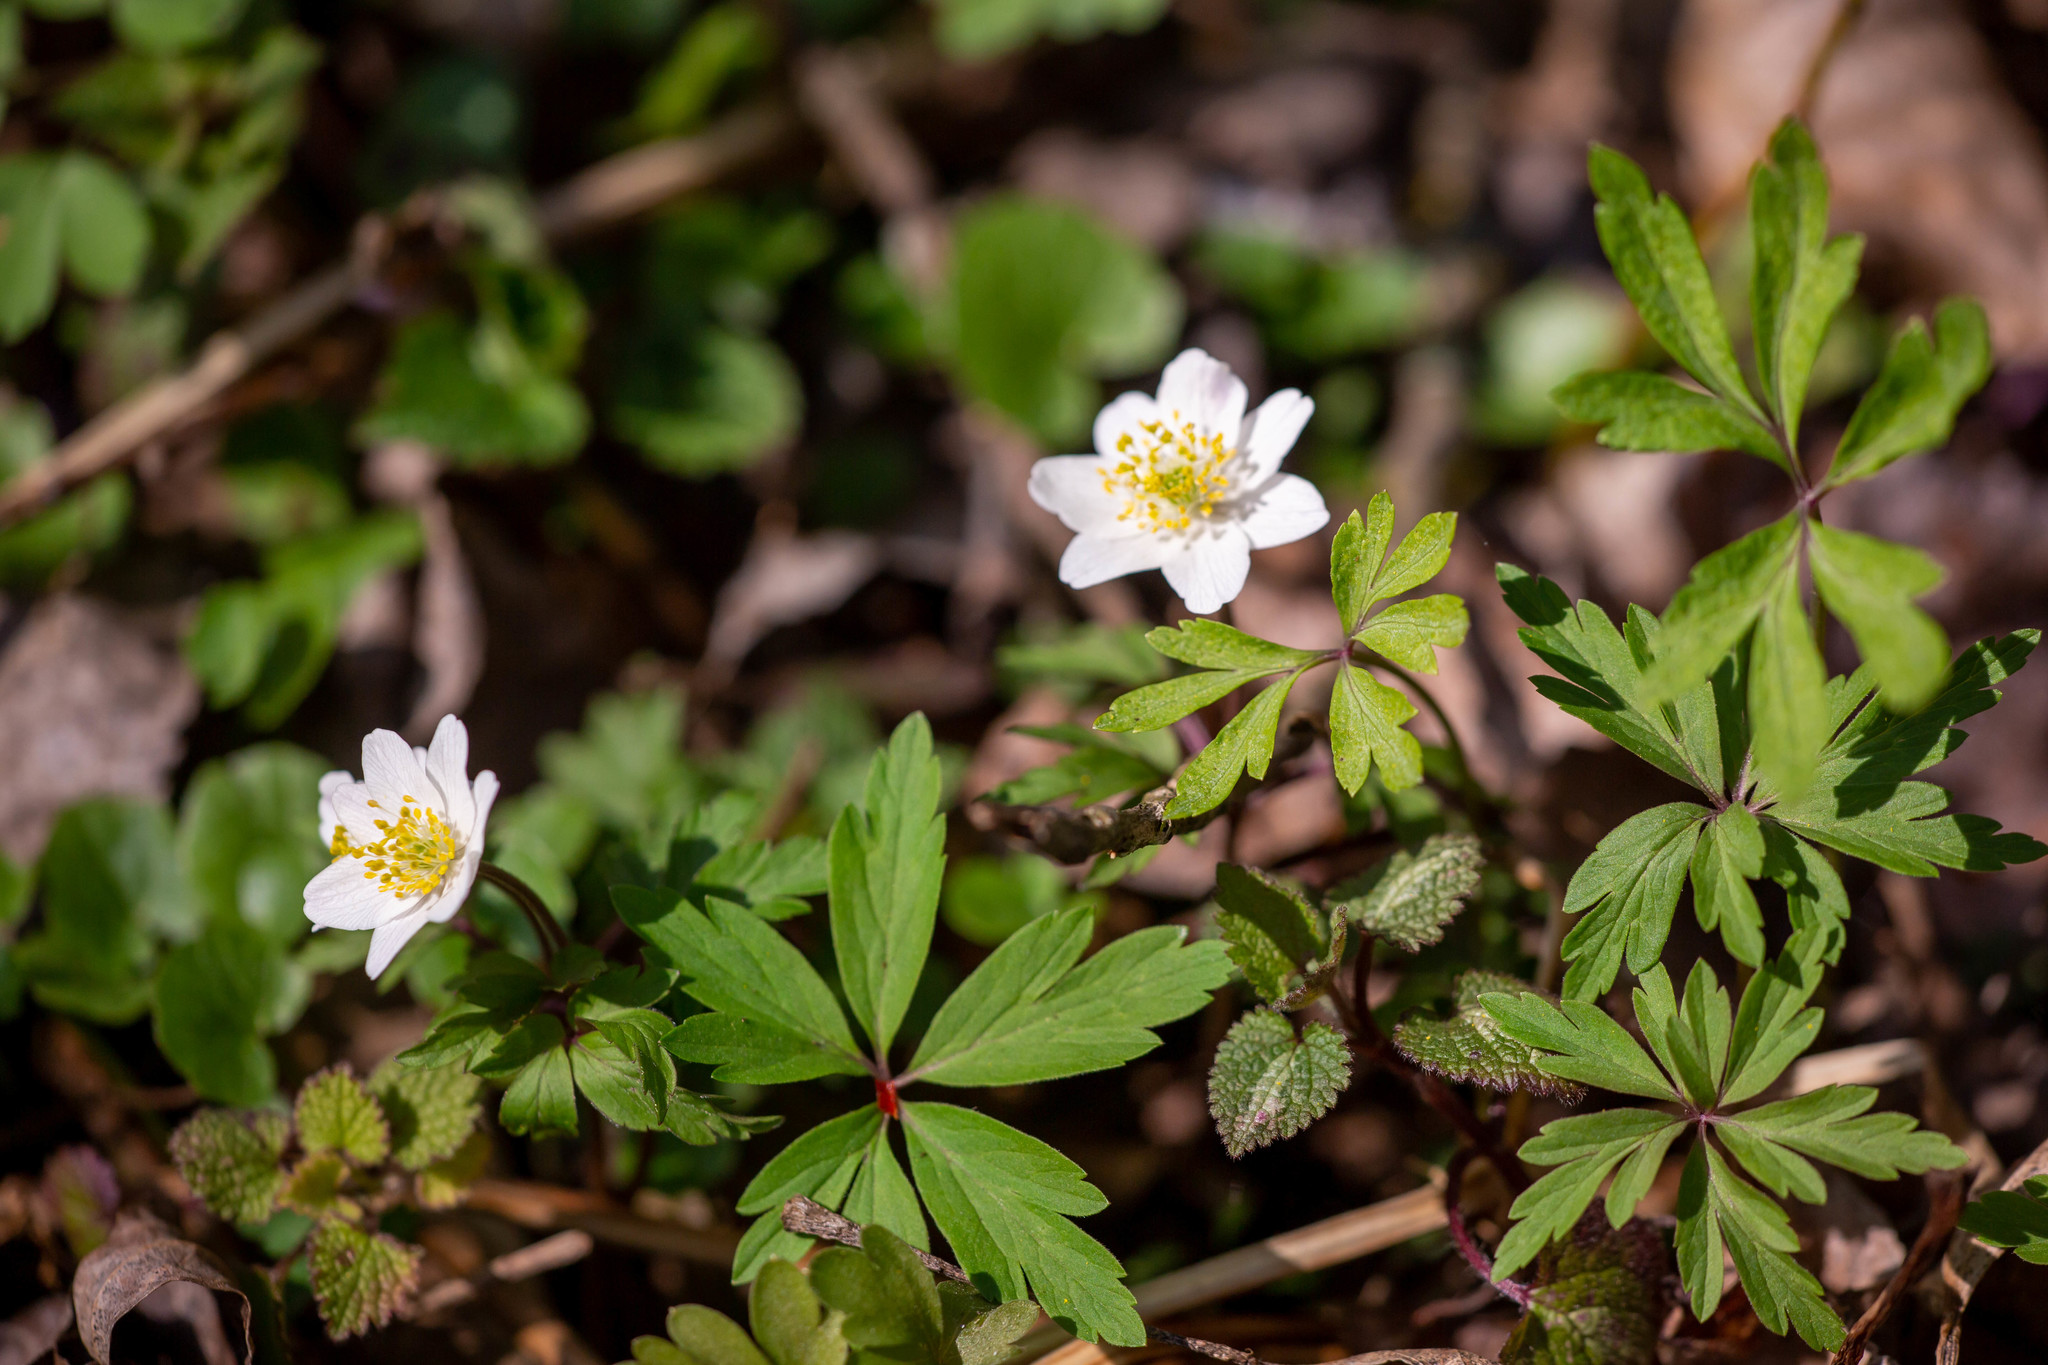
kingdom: Plantae
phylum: Tracheophyta
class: Magnoliopsida
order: Ranunculales
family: Ranunculaceae
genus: Anemone
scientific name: Anemone nemorosa
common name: Wood anemone
